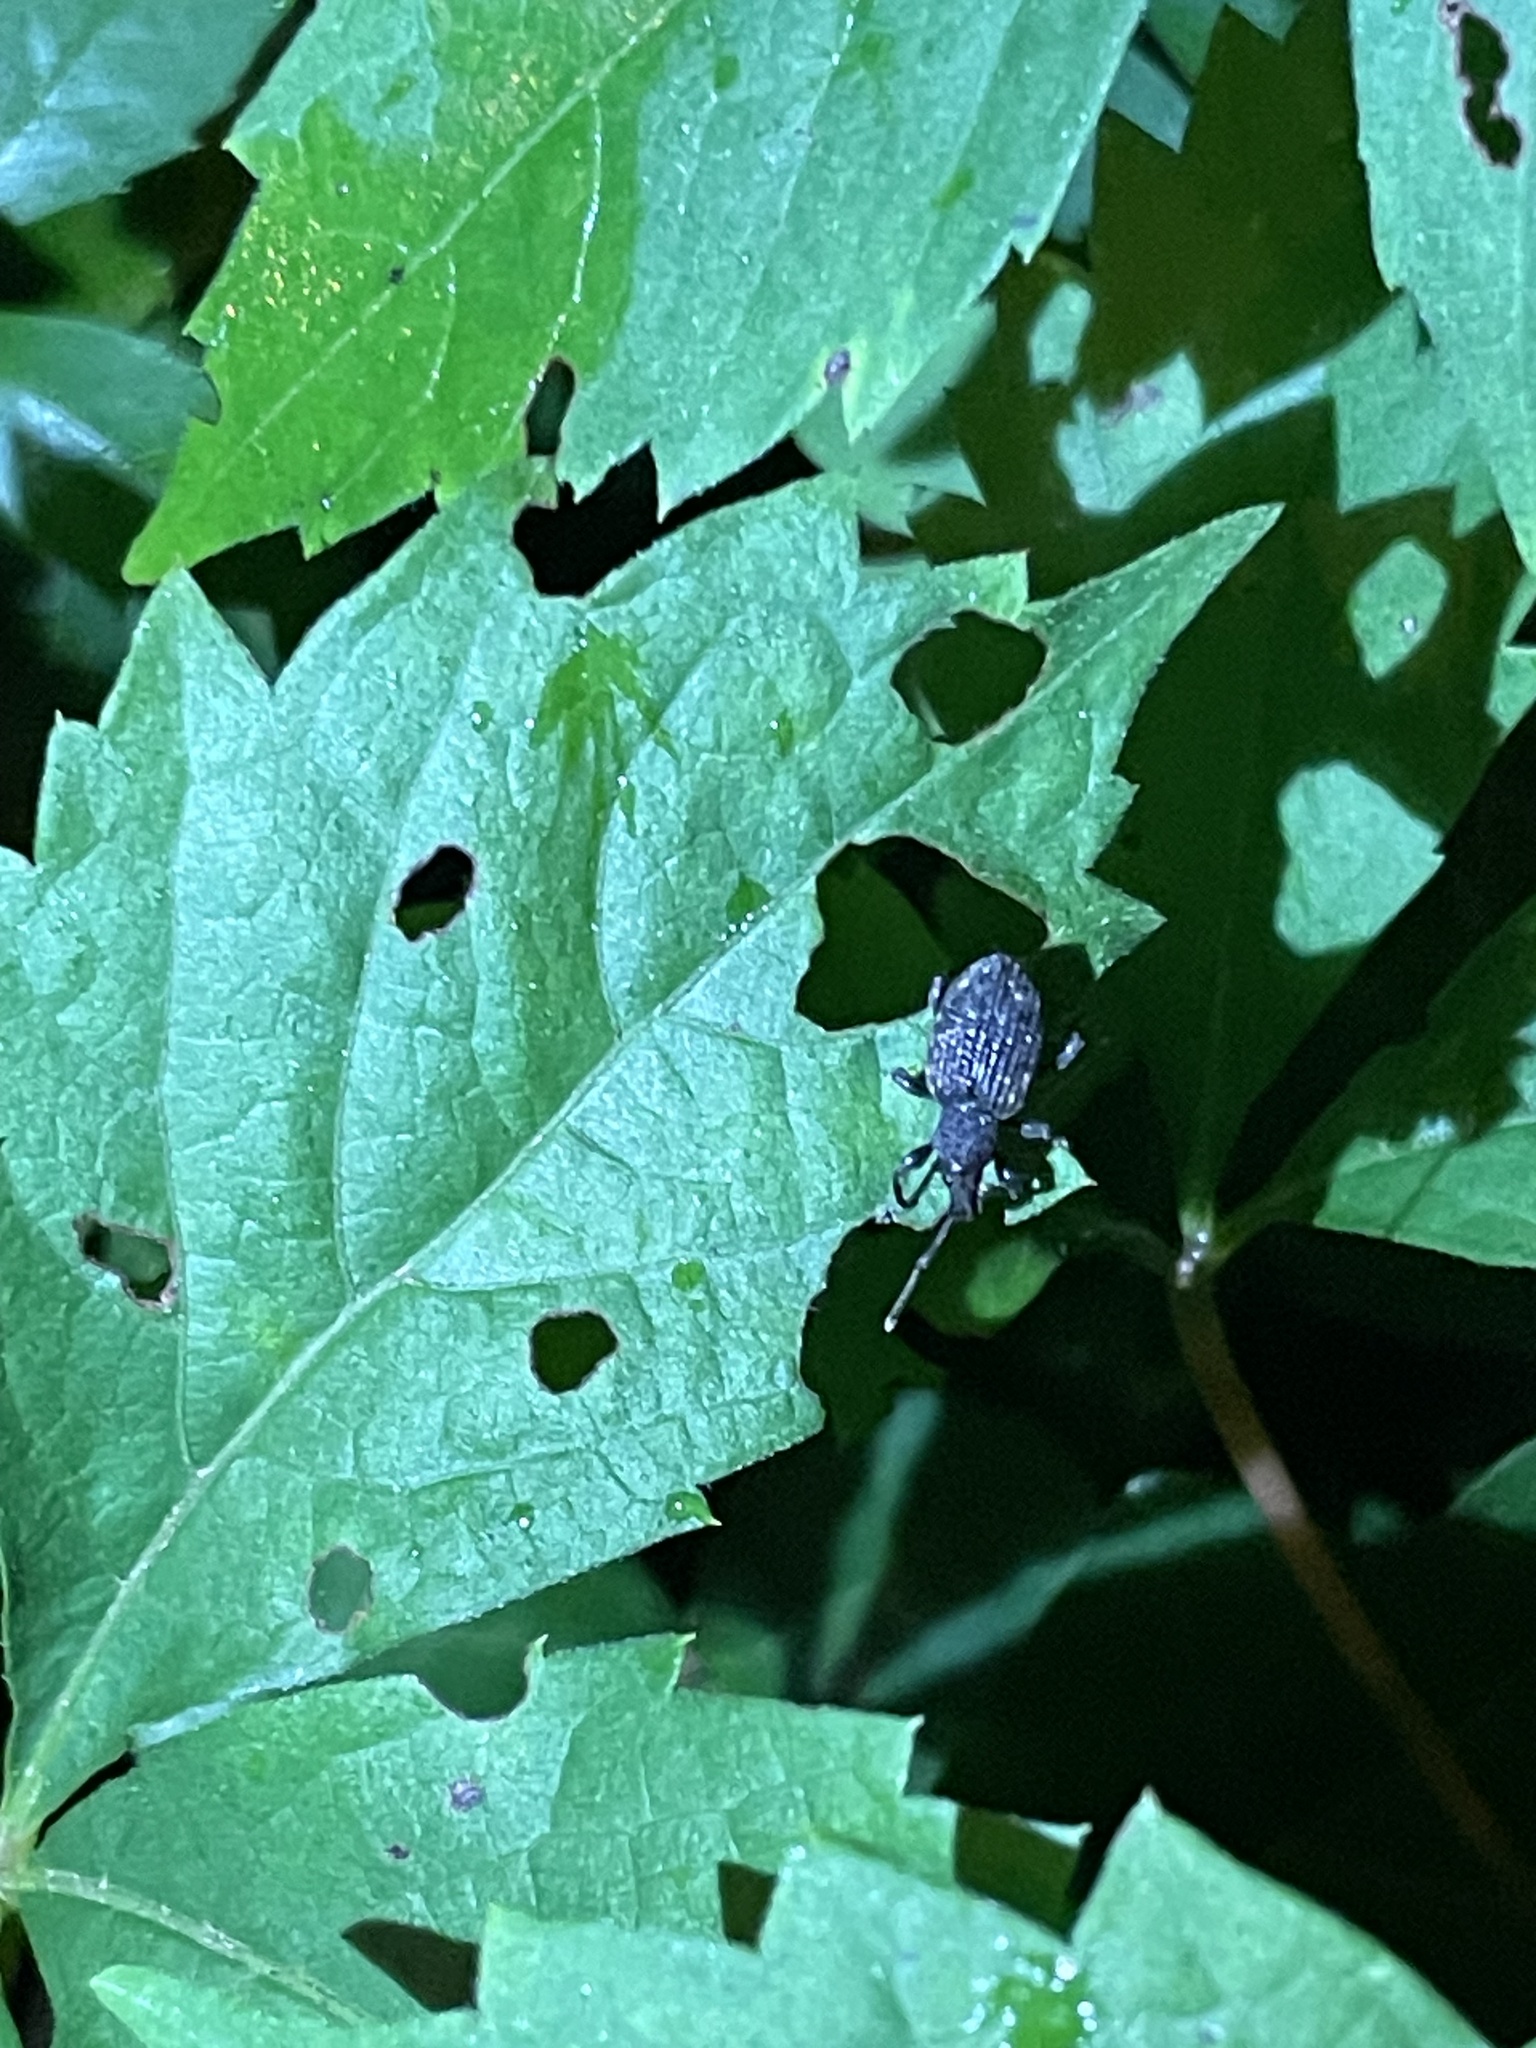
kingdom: Animalia
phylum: Arthropoda
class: Insecta
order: Coleoptera
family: Curculionidae
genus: Otiorhynchus
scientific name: Otiorhynchus sulcatus
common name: Black vine weevil
